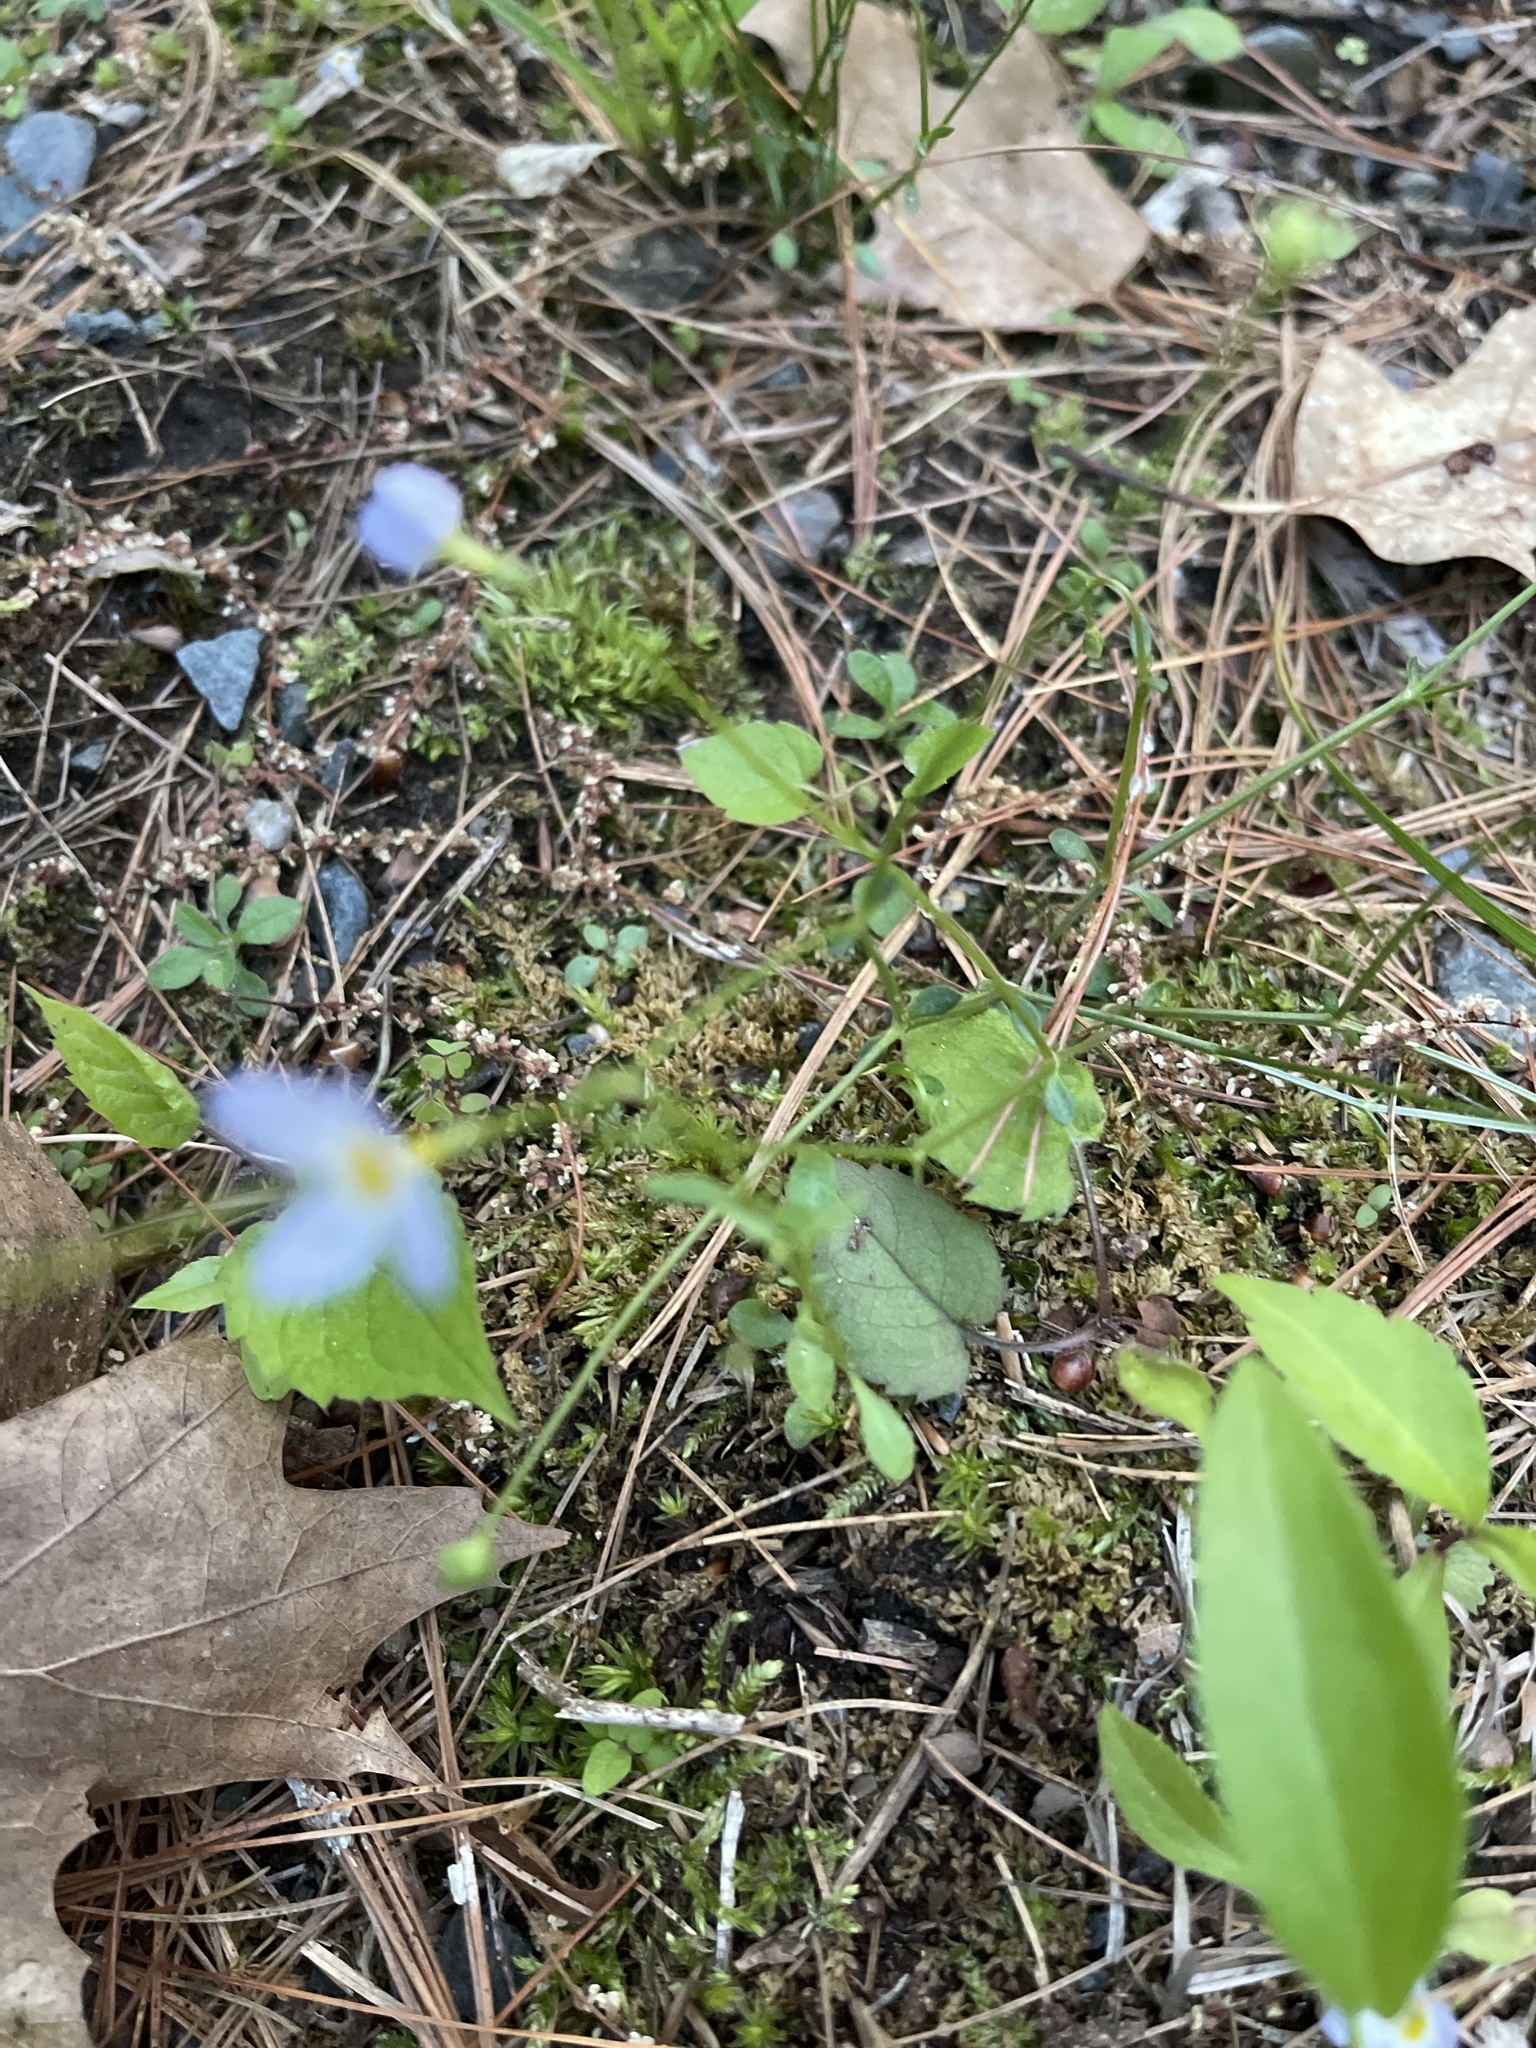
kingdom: Plantae
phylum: Tracheophyta
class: Magnoliopsida
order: Gentianales
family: Rubiaceae
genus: Houstonia
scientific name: Houstonia caerulea
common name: Bluets
